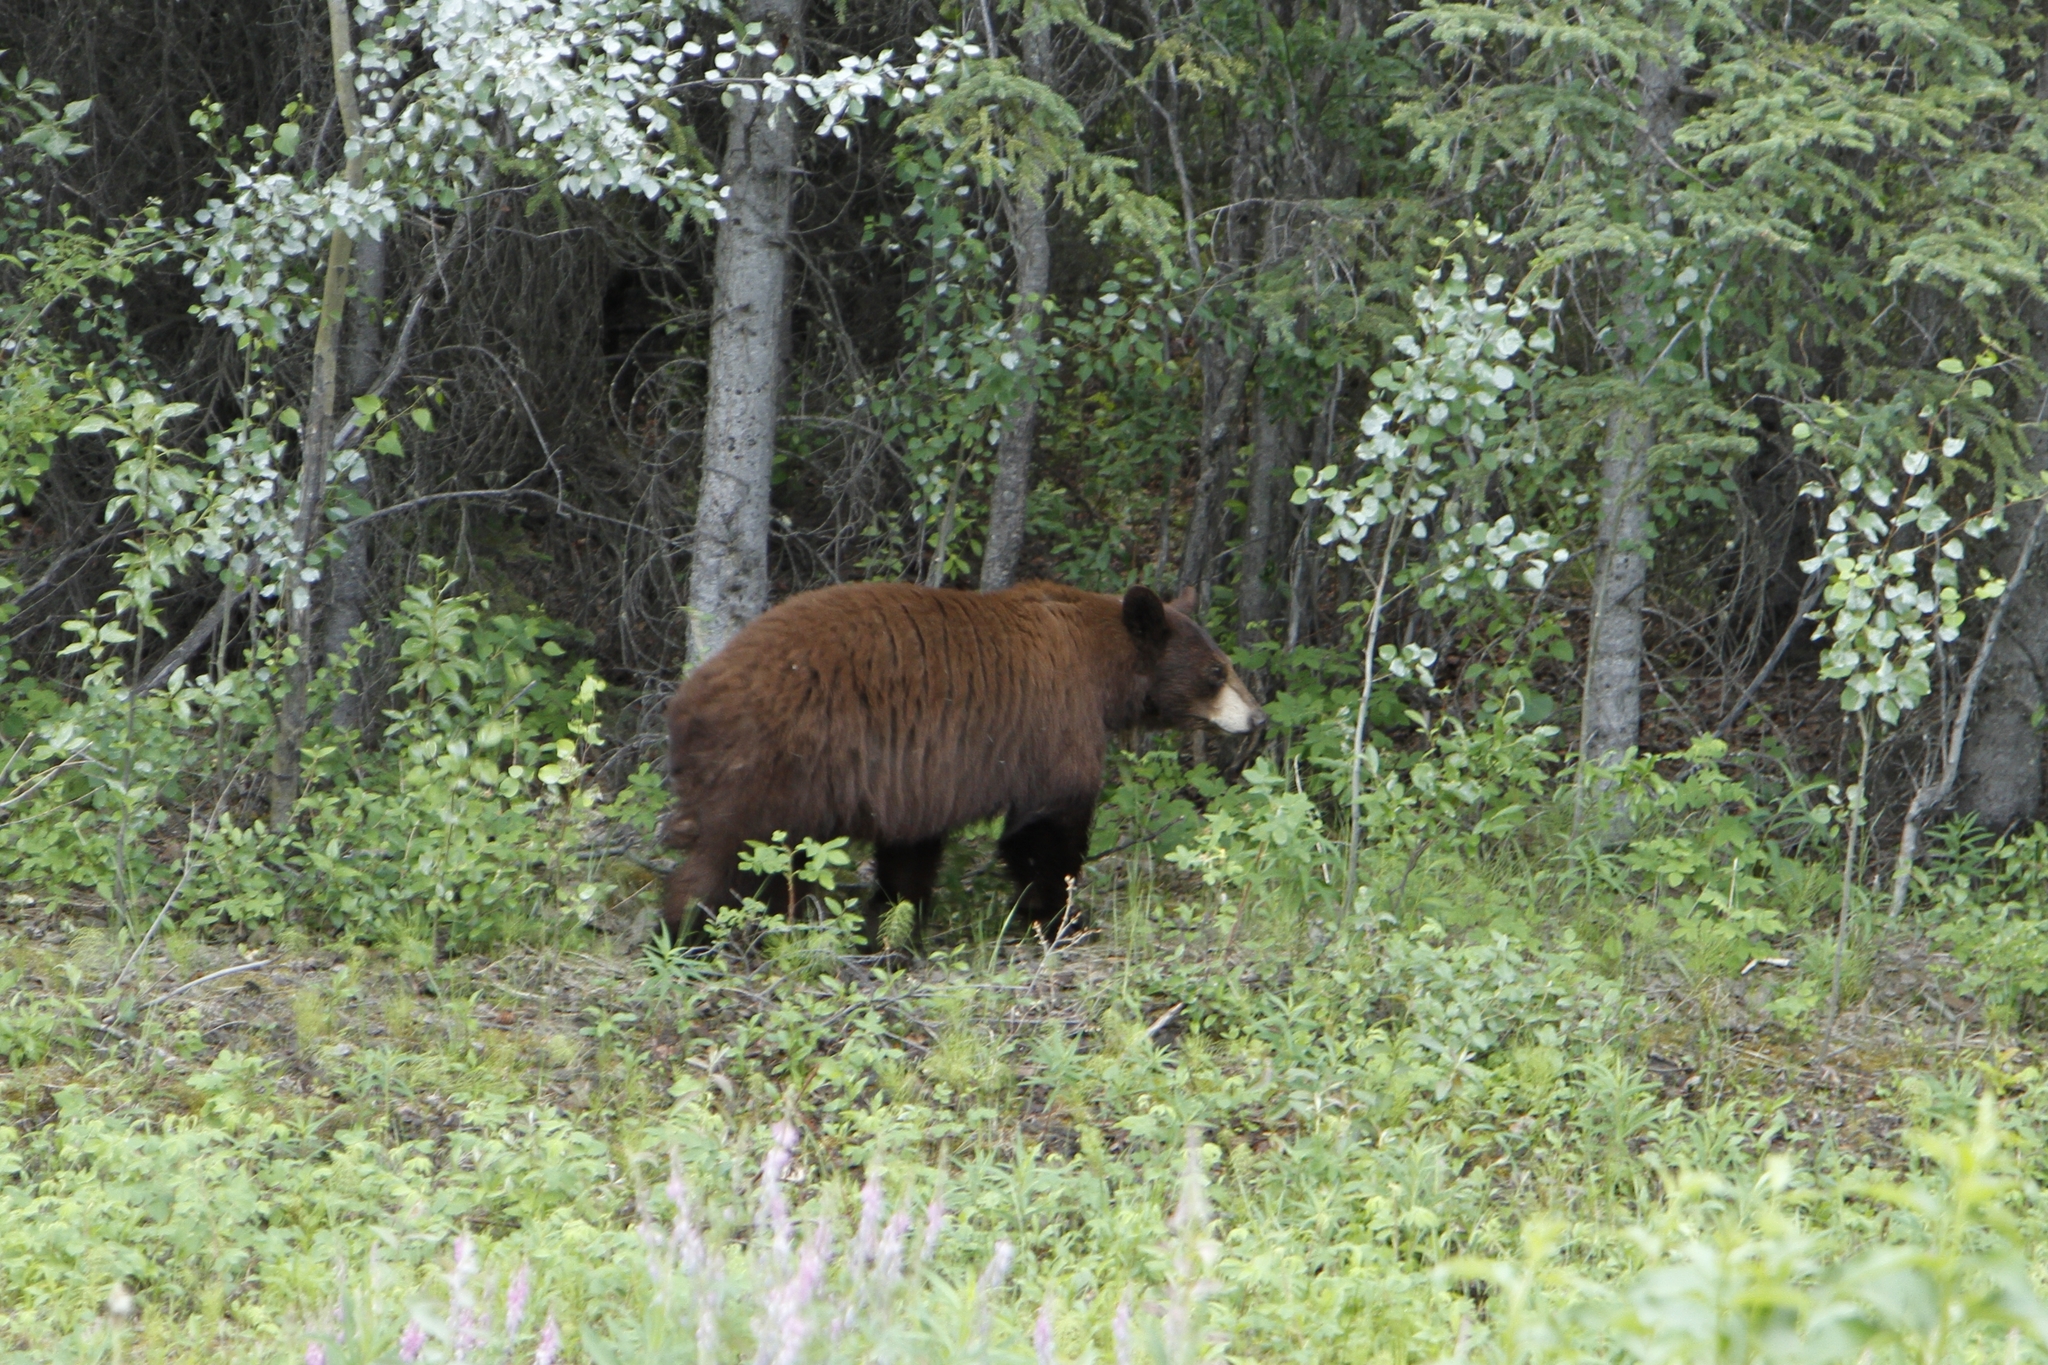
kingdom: Animalia
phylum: Chordata
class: Mammalia
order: Carnivora
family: Ursidae
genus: Ursus
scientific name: Ursus americanus
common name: American black bear
